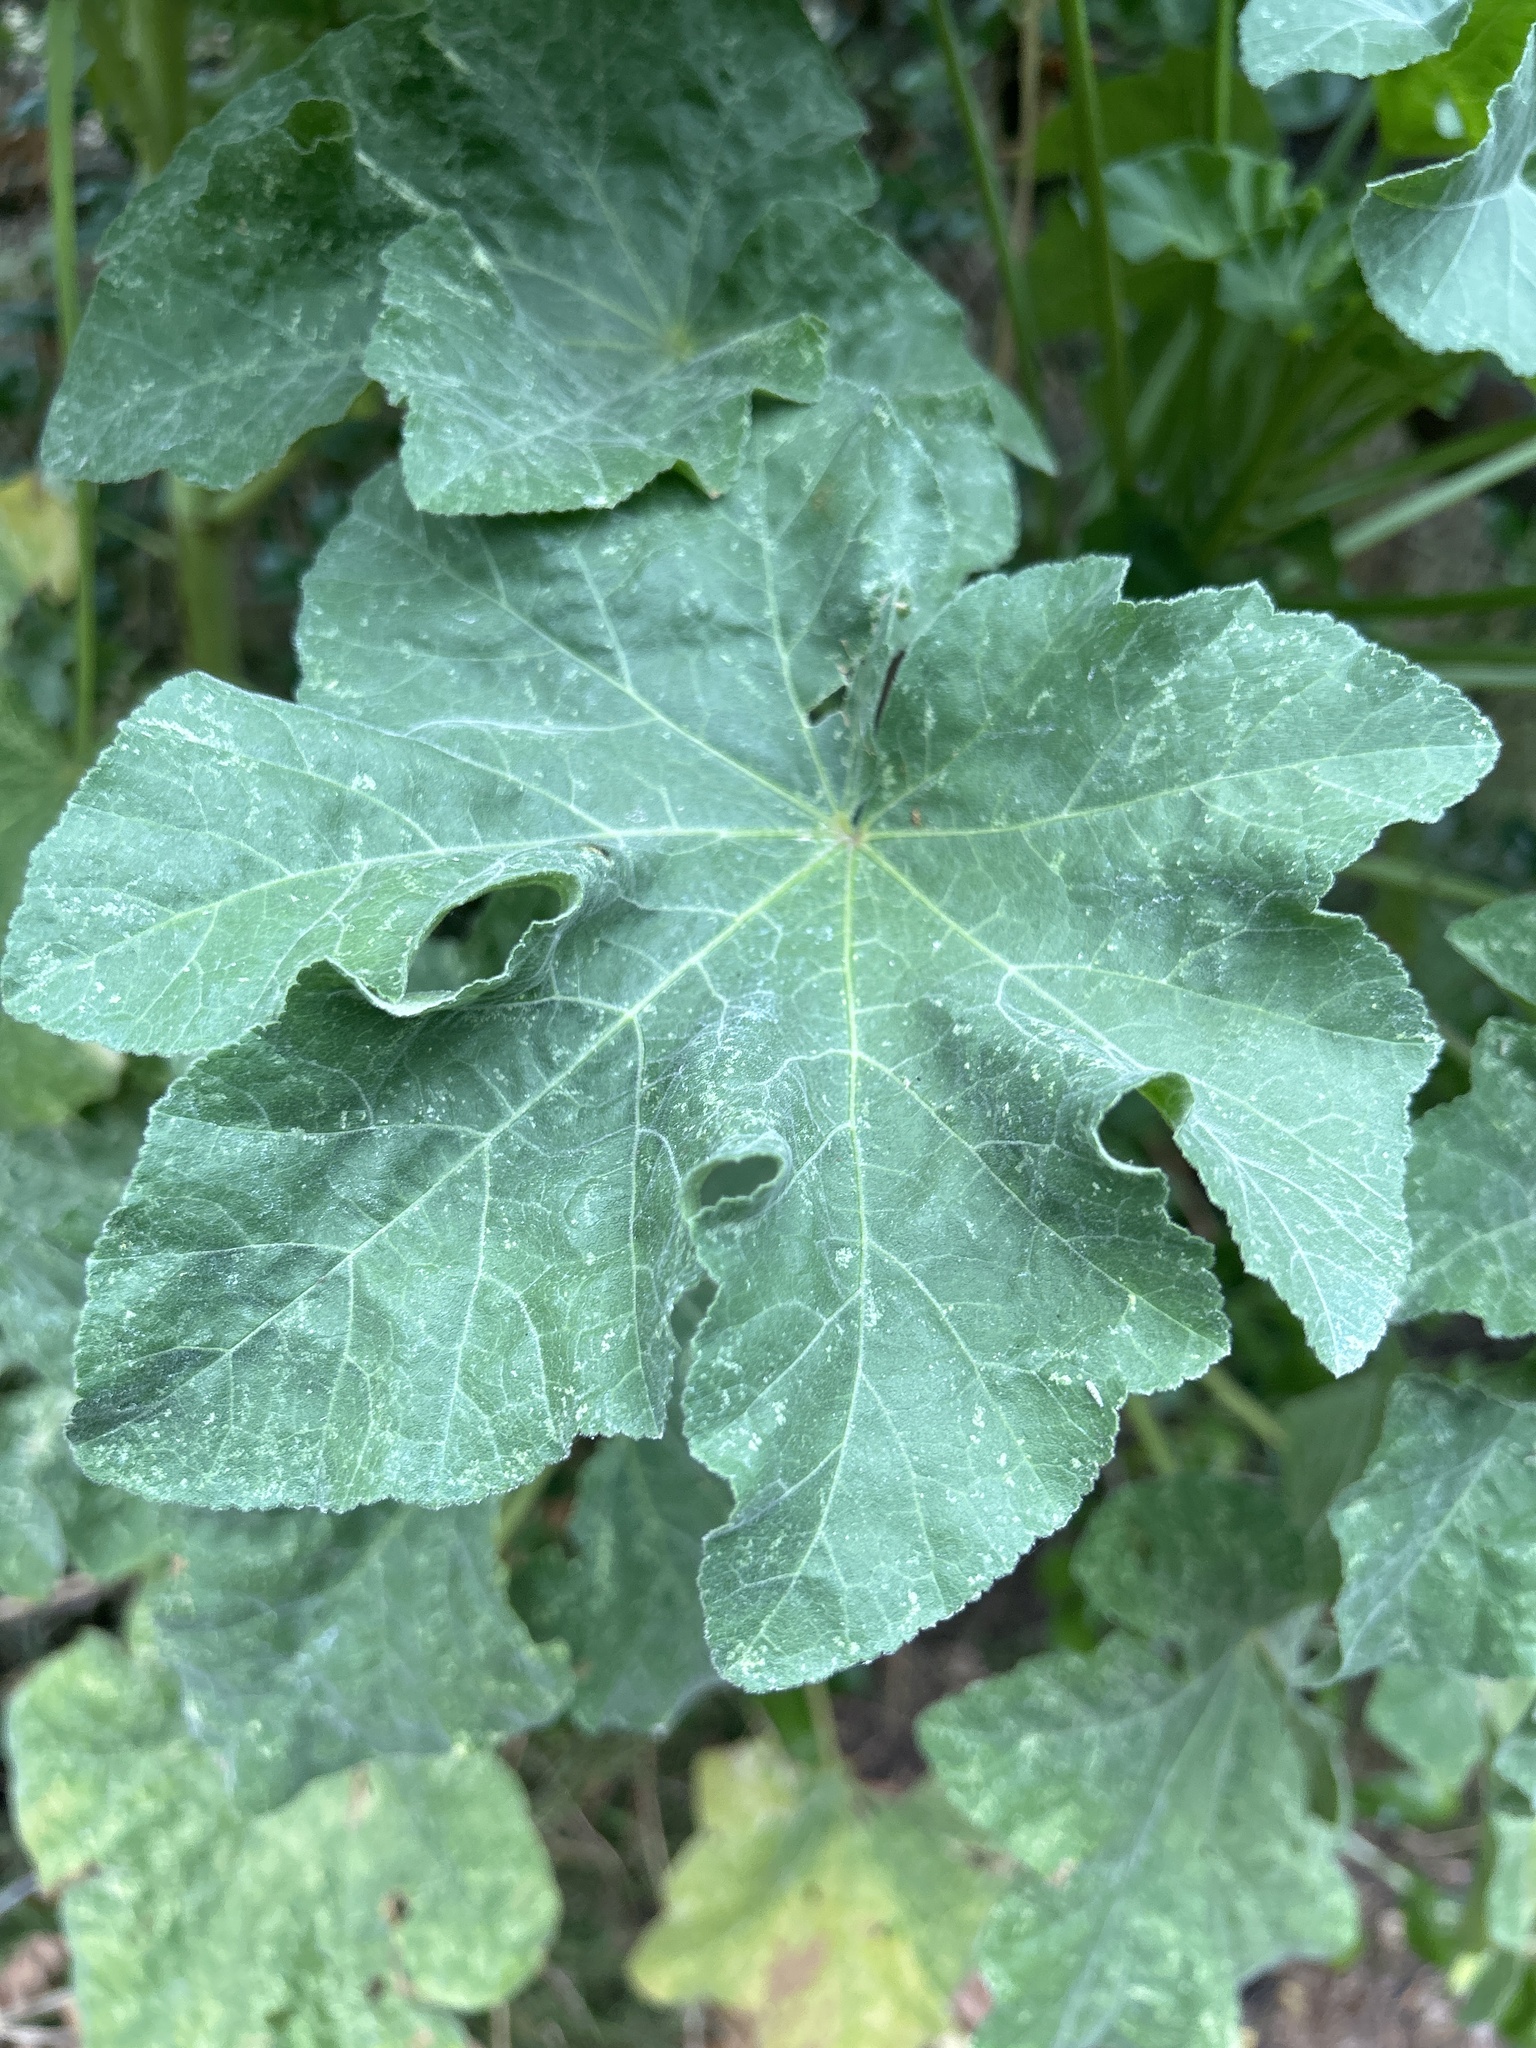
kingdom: Plantae
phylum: Tracheophyta
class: Magnoliopsida
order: Malvales
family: Malvaceae
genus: Malva
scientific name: Malva arborea
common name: Tree mallow
